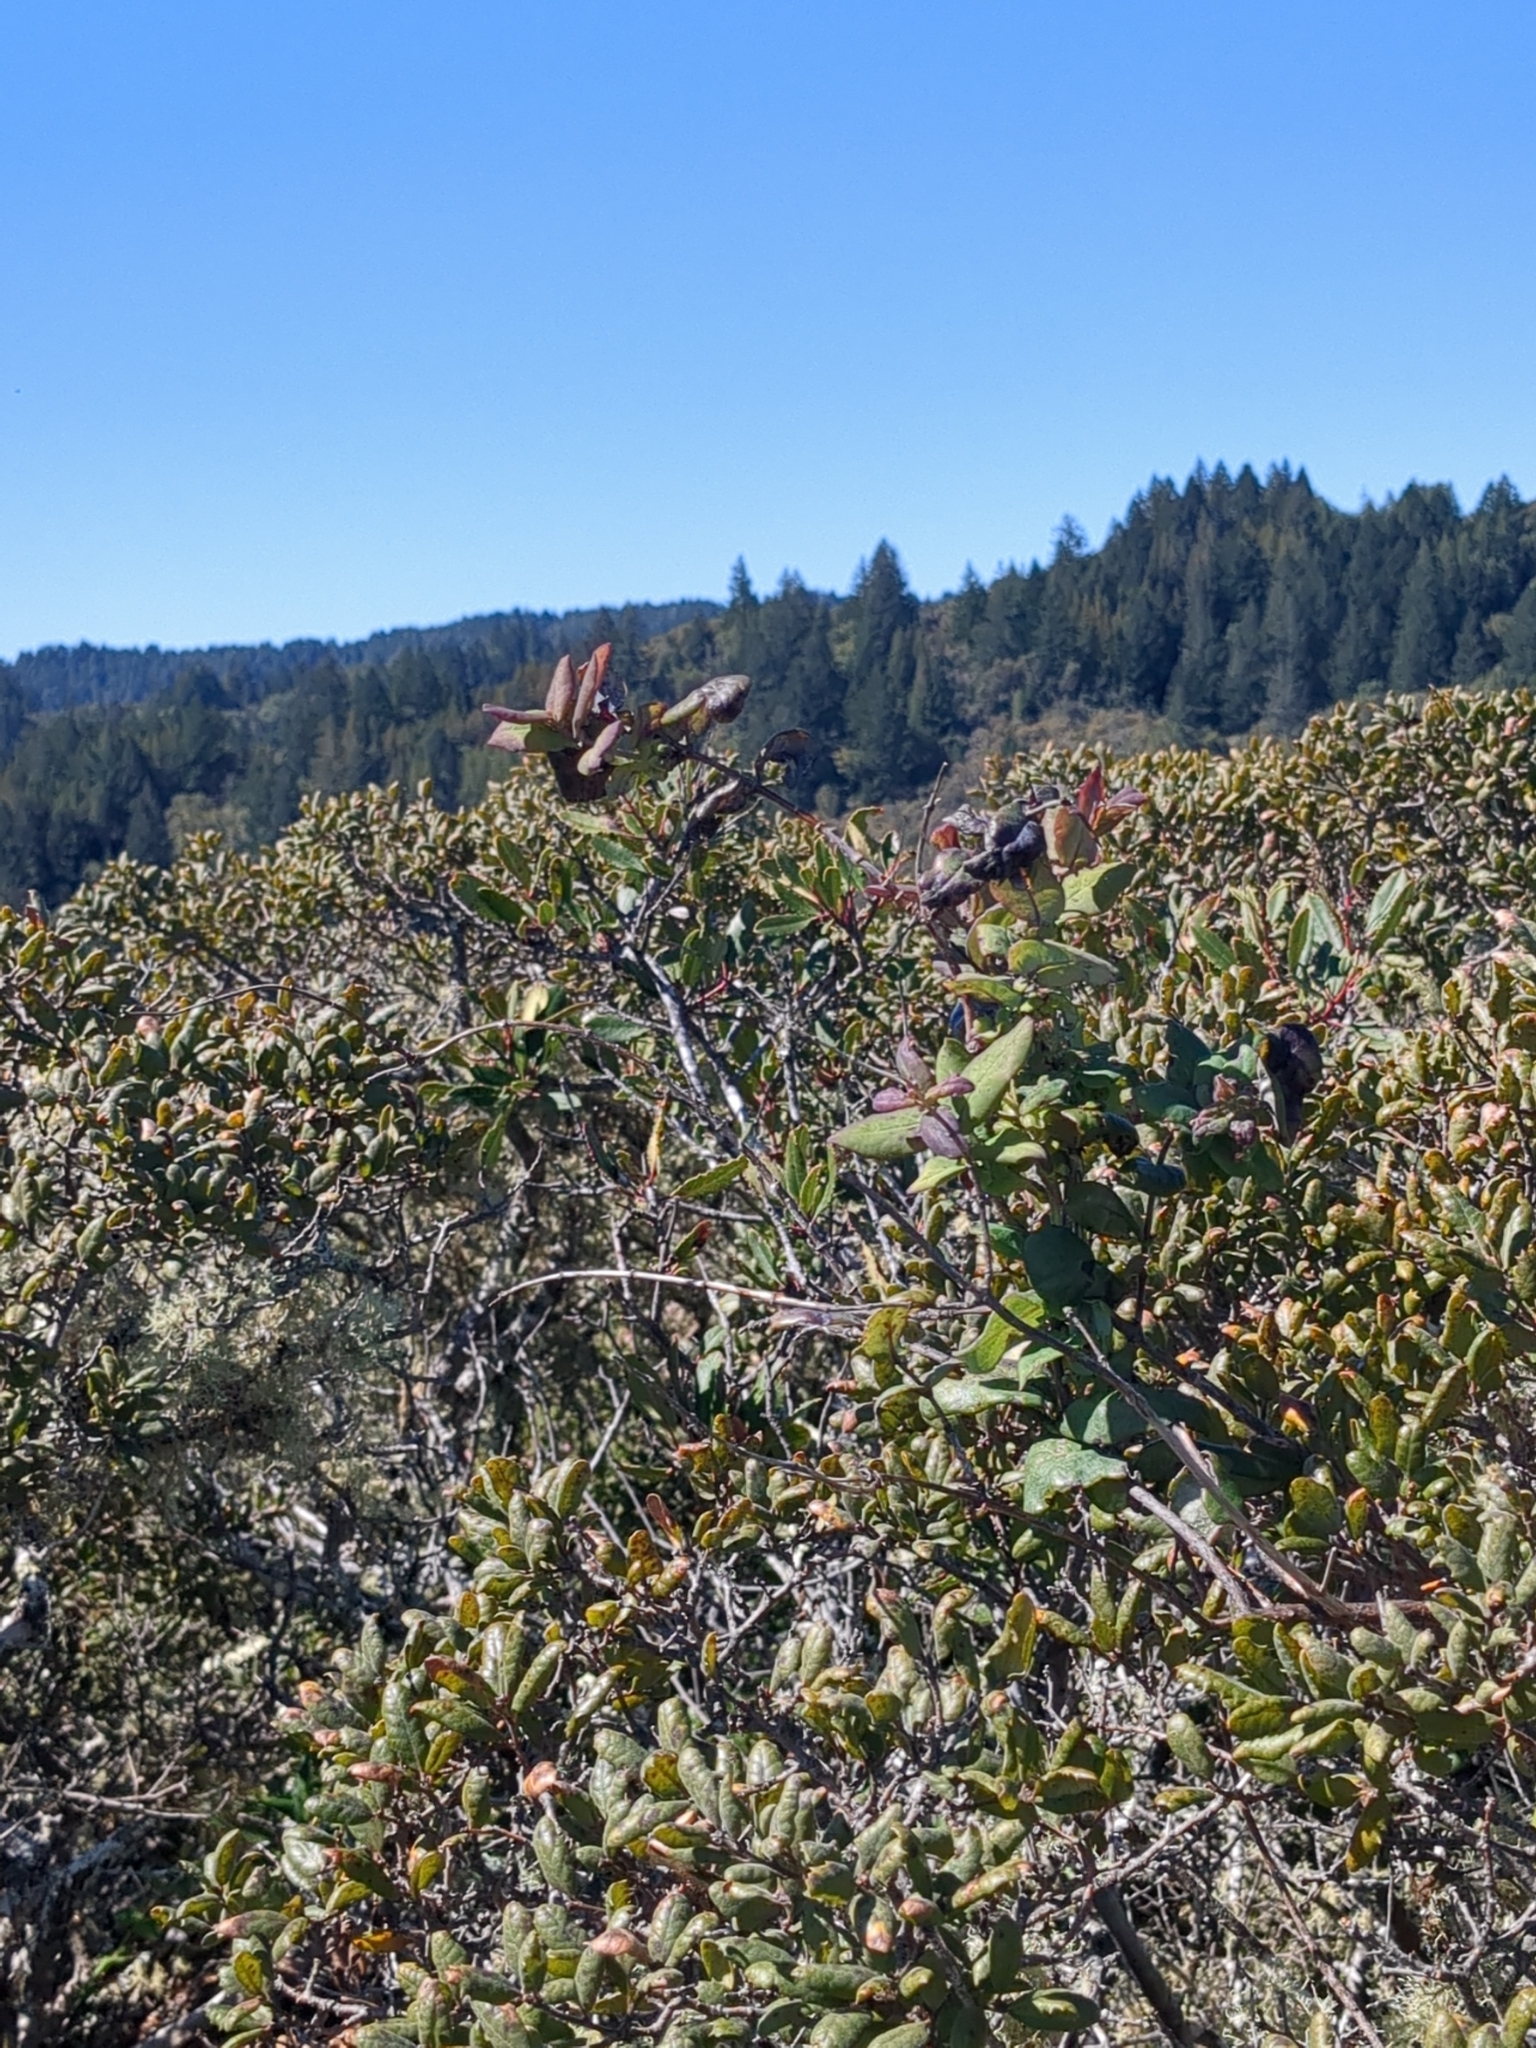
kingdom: Plantae
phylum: Tracheophyta
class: Magnoliopsida
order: Dipsacales
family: Caprifoliaceae
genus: Lonicera
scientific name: Lonicera hispidula
